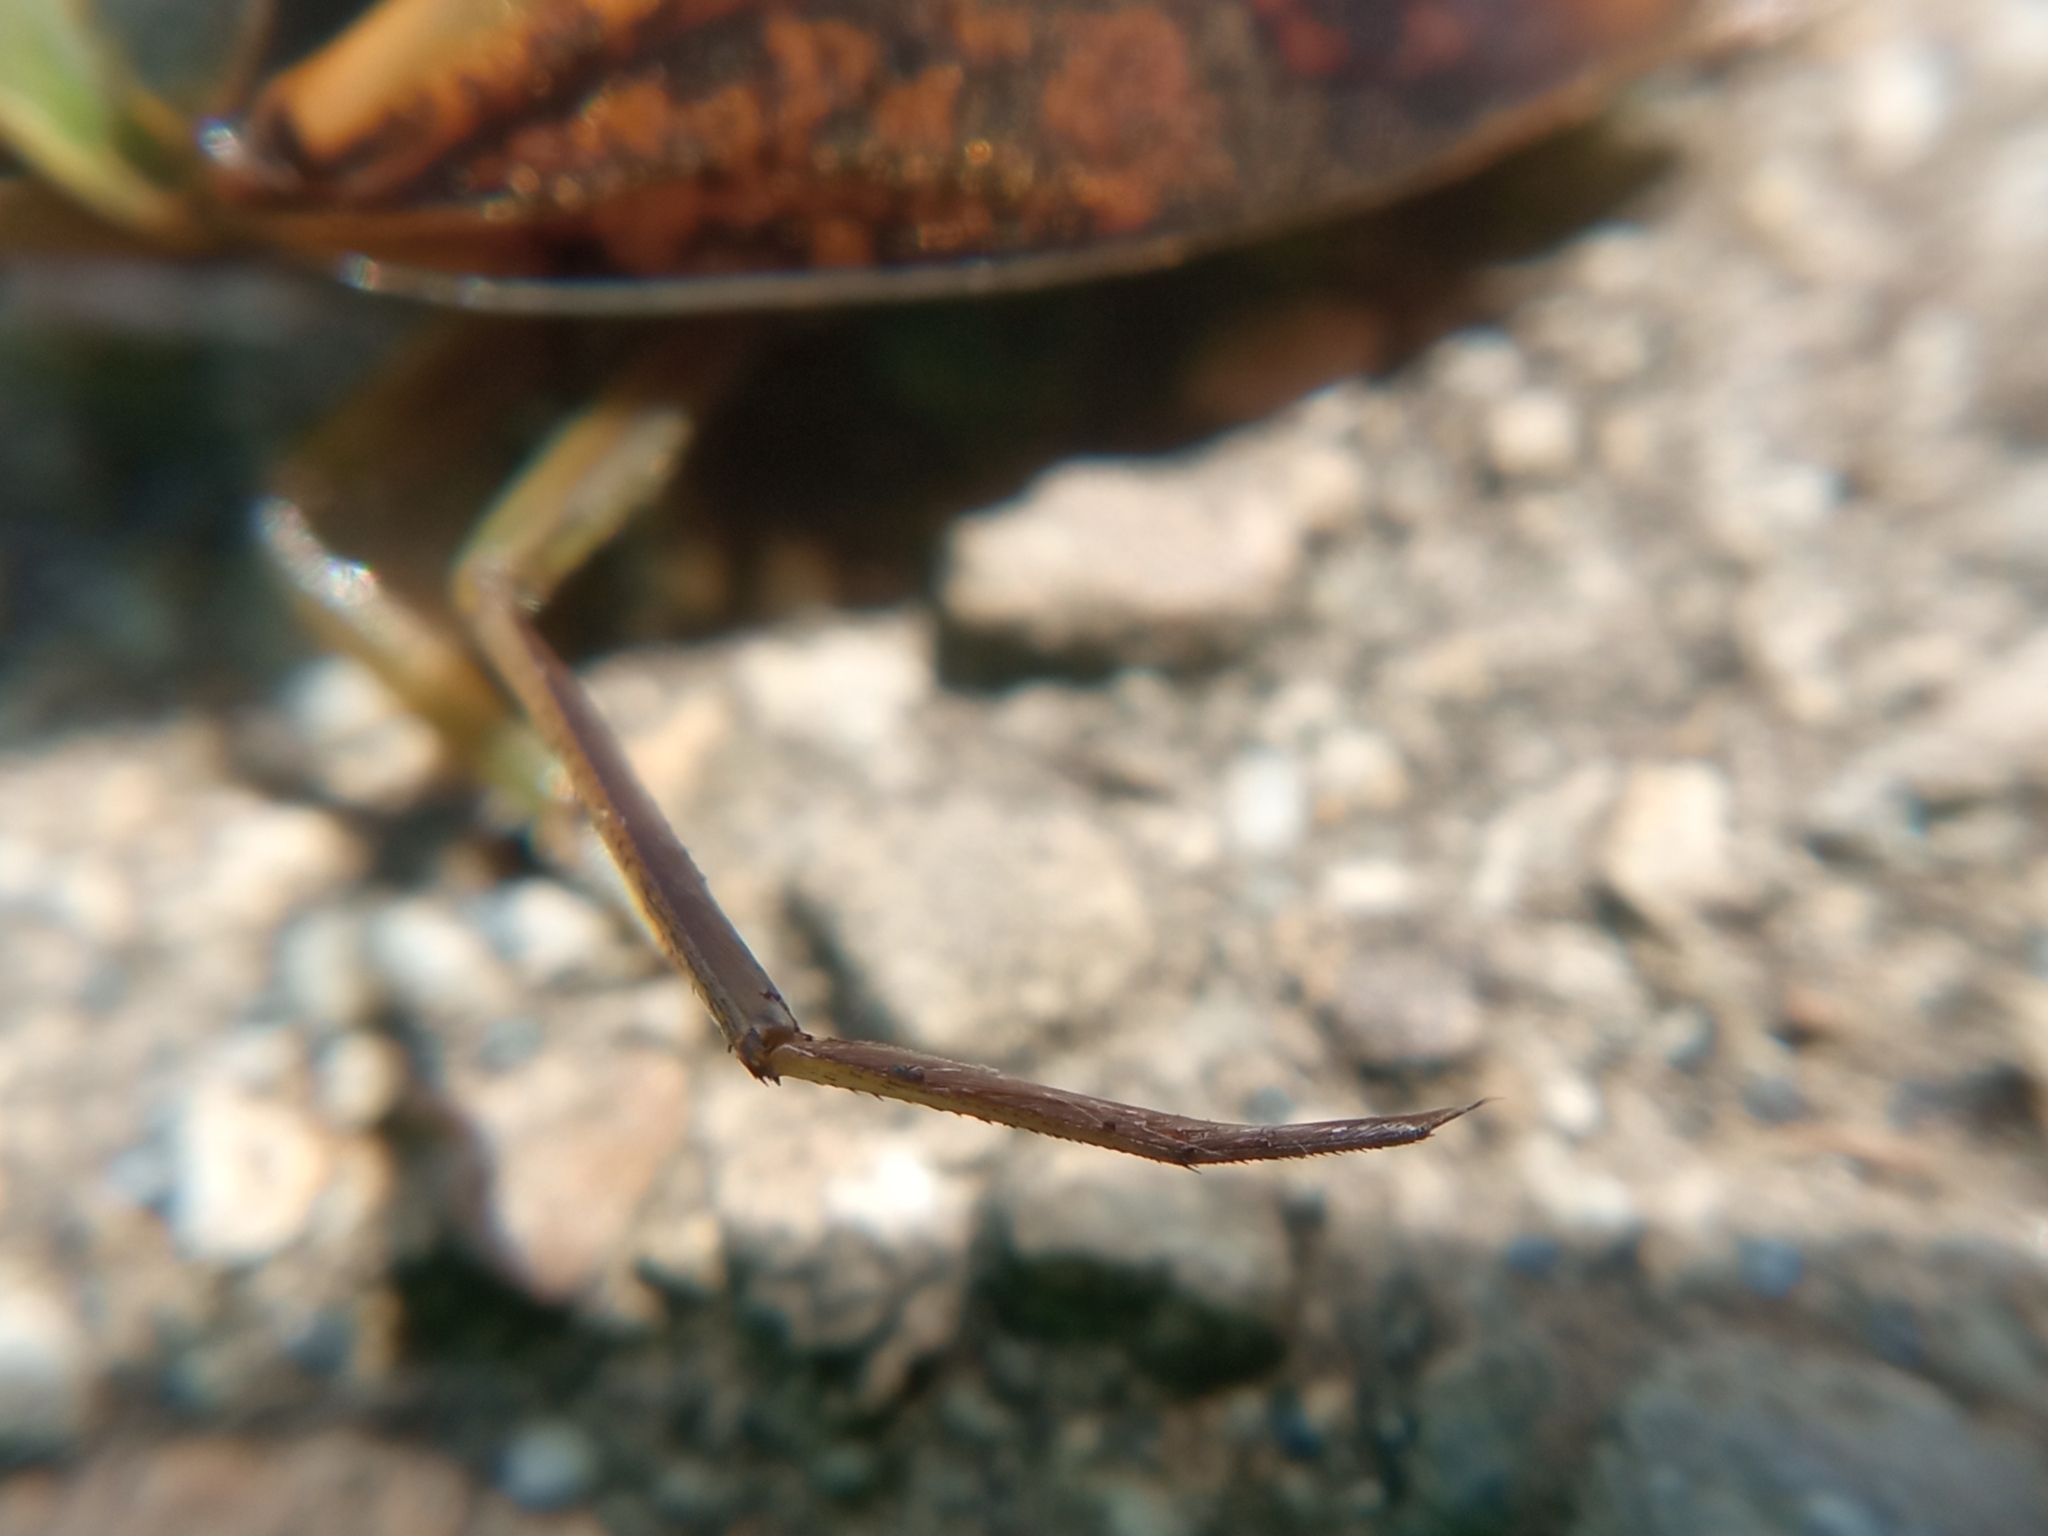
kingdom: Animalia
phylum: Arthropoda
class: Insecta
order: Hemiptera
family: Notonectidae
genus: Notonecta
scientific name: Notonecta maculata
